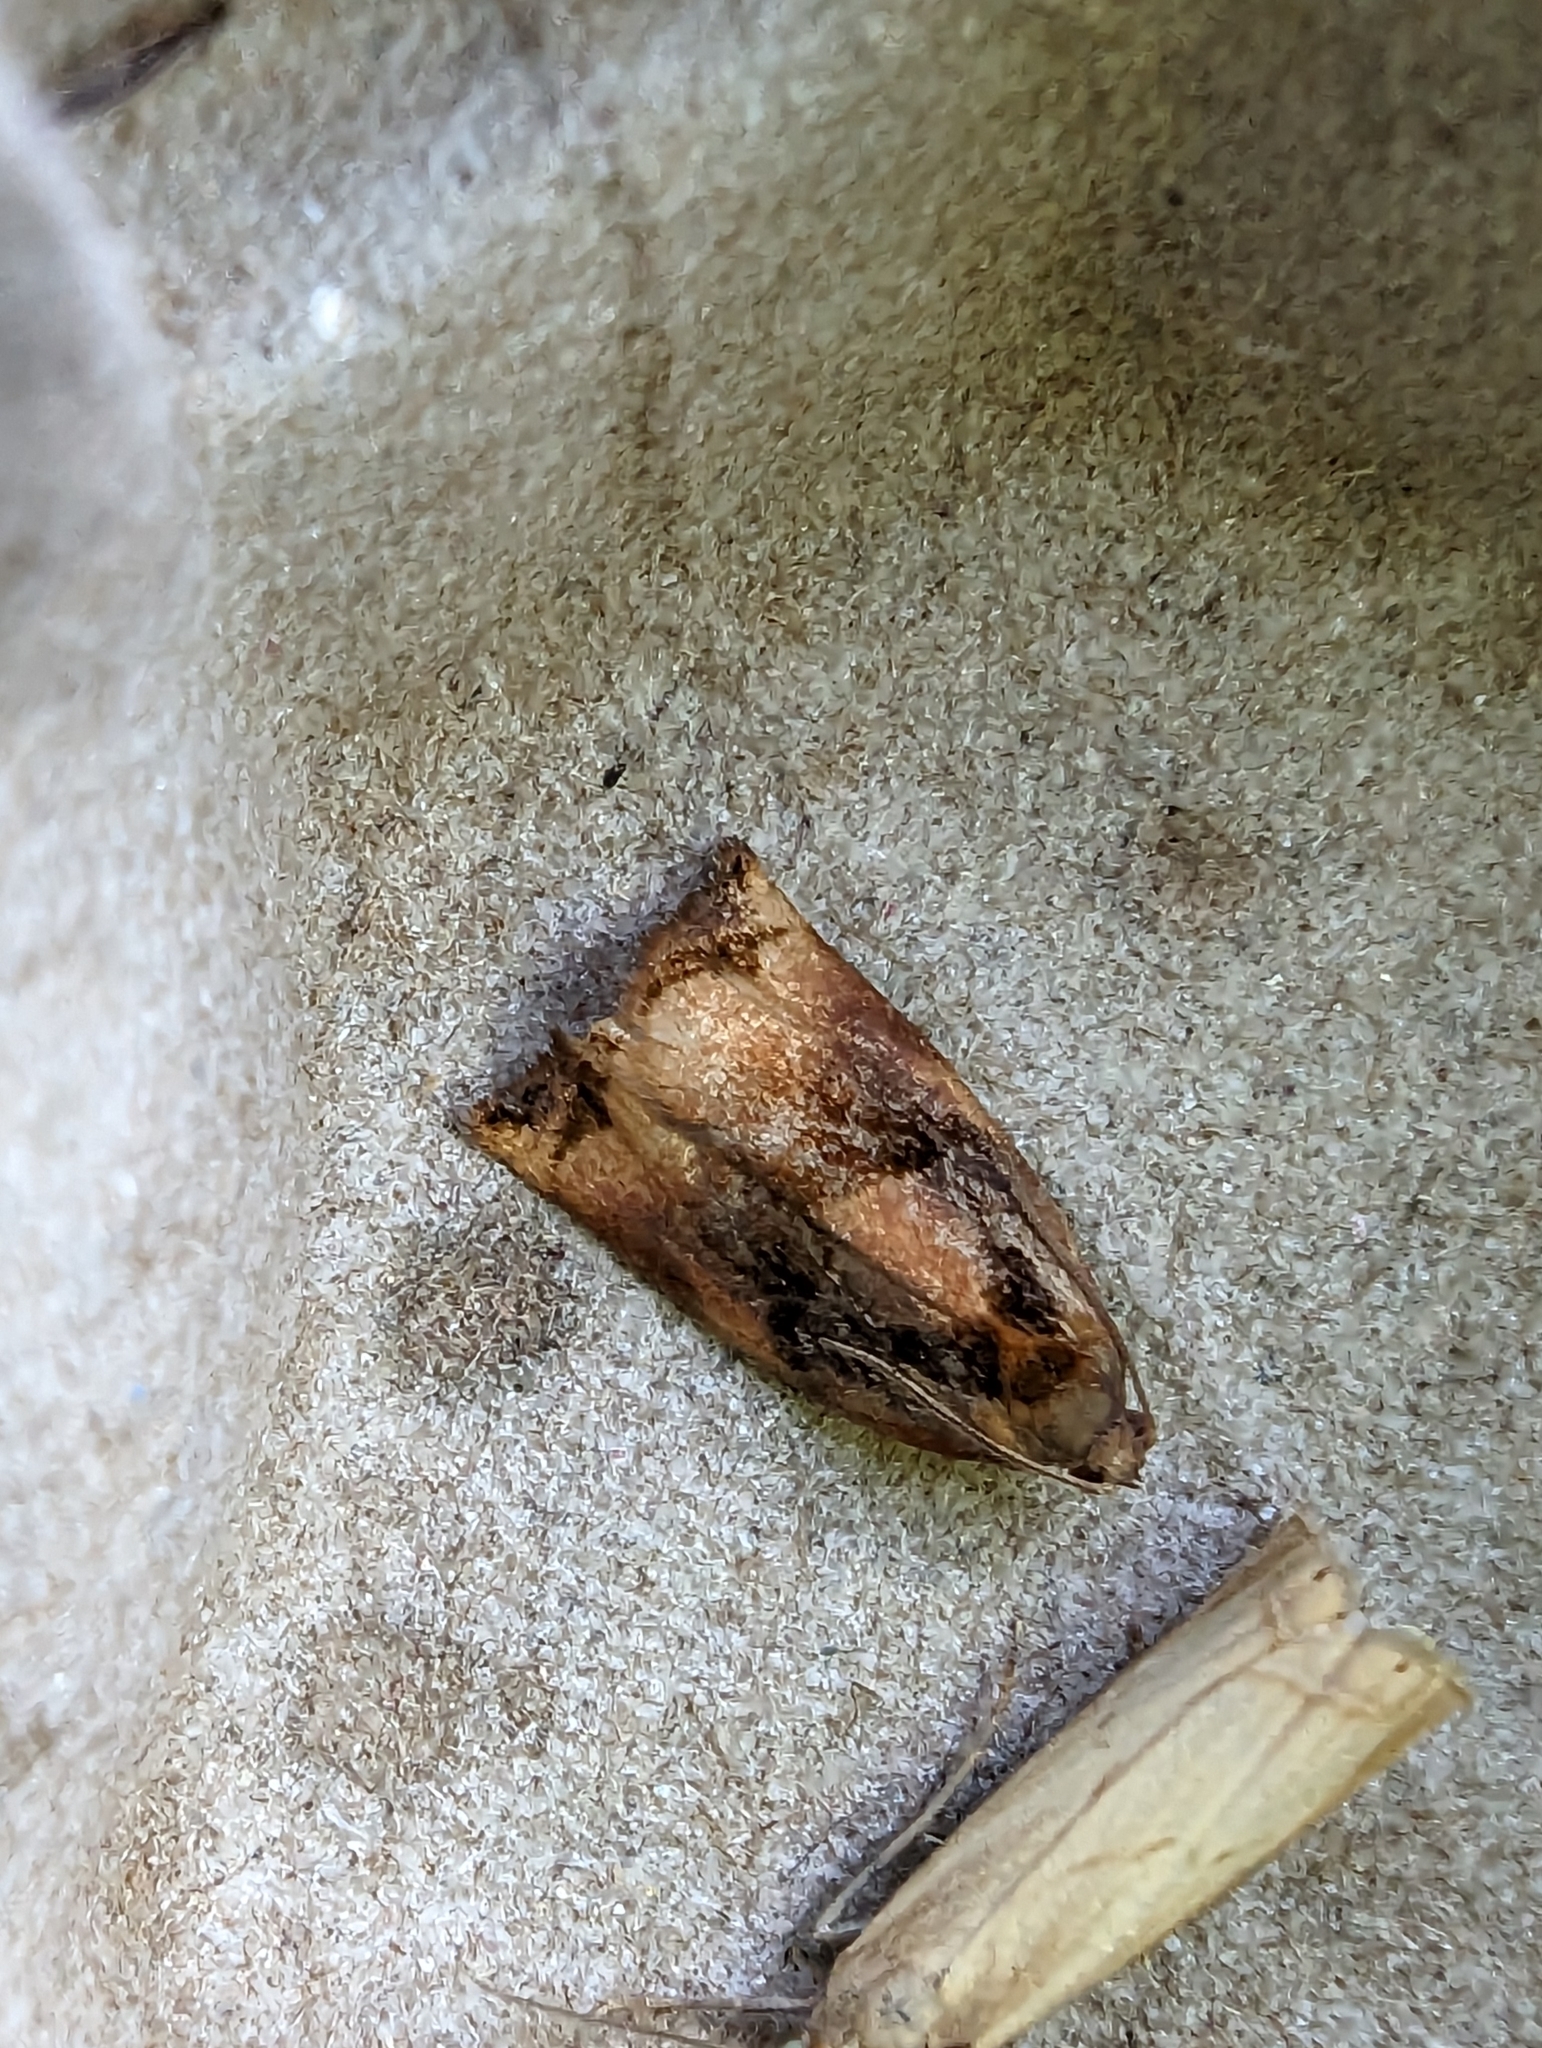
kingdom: Animalia
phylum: Arthropoda
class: Insecta
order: Lepidoptera
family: Tortricidae
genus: Archips
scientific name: Archips podana
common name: Large fruit-tree tortrix
